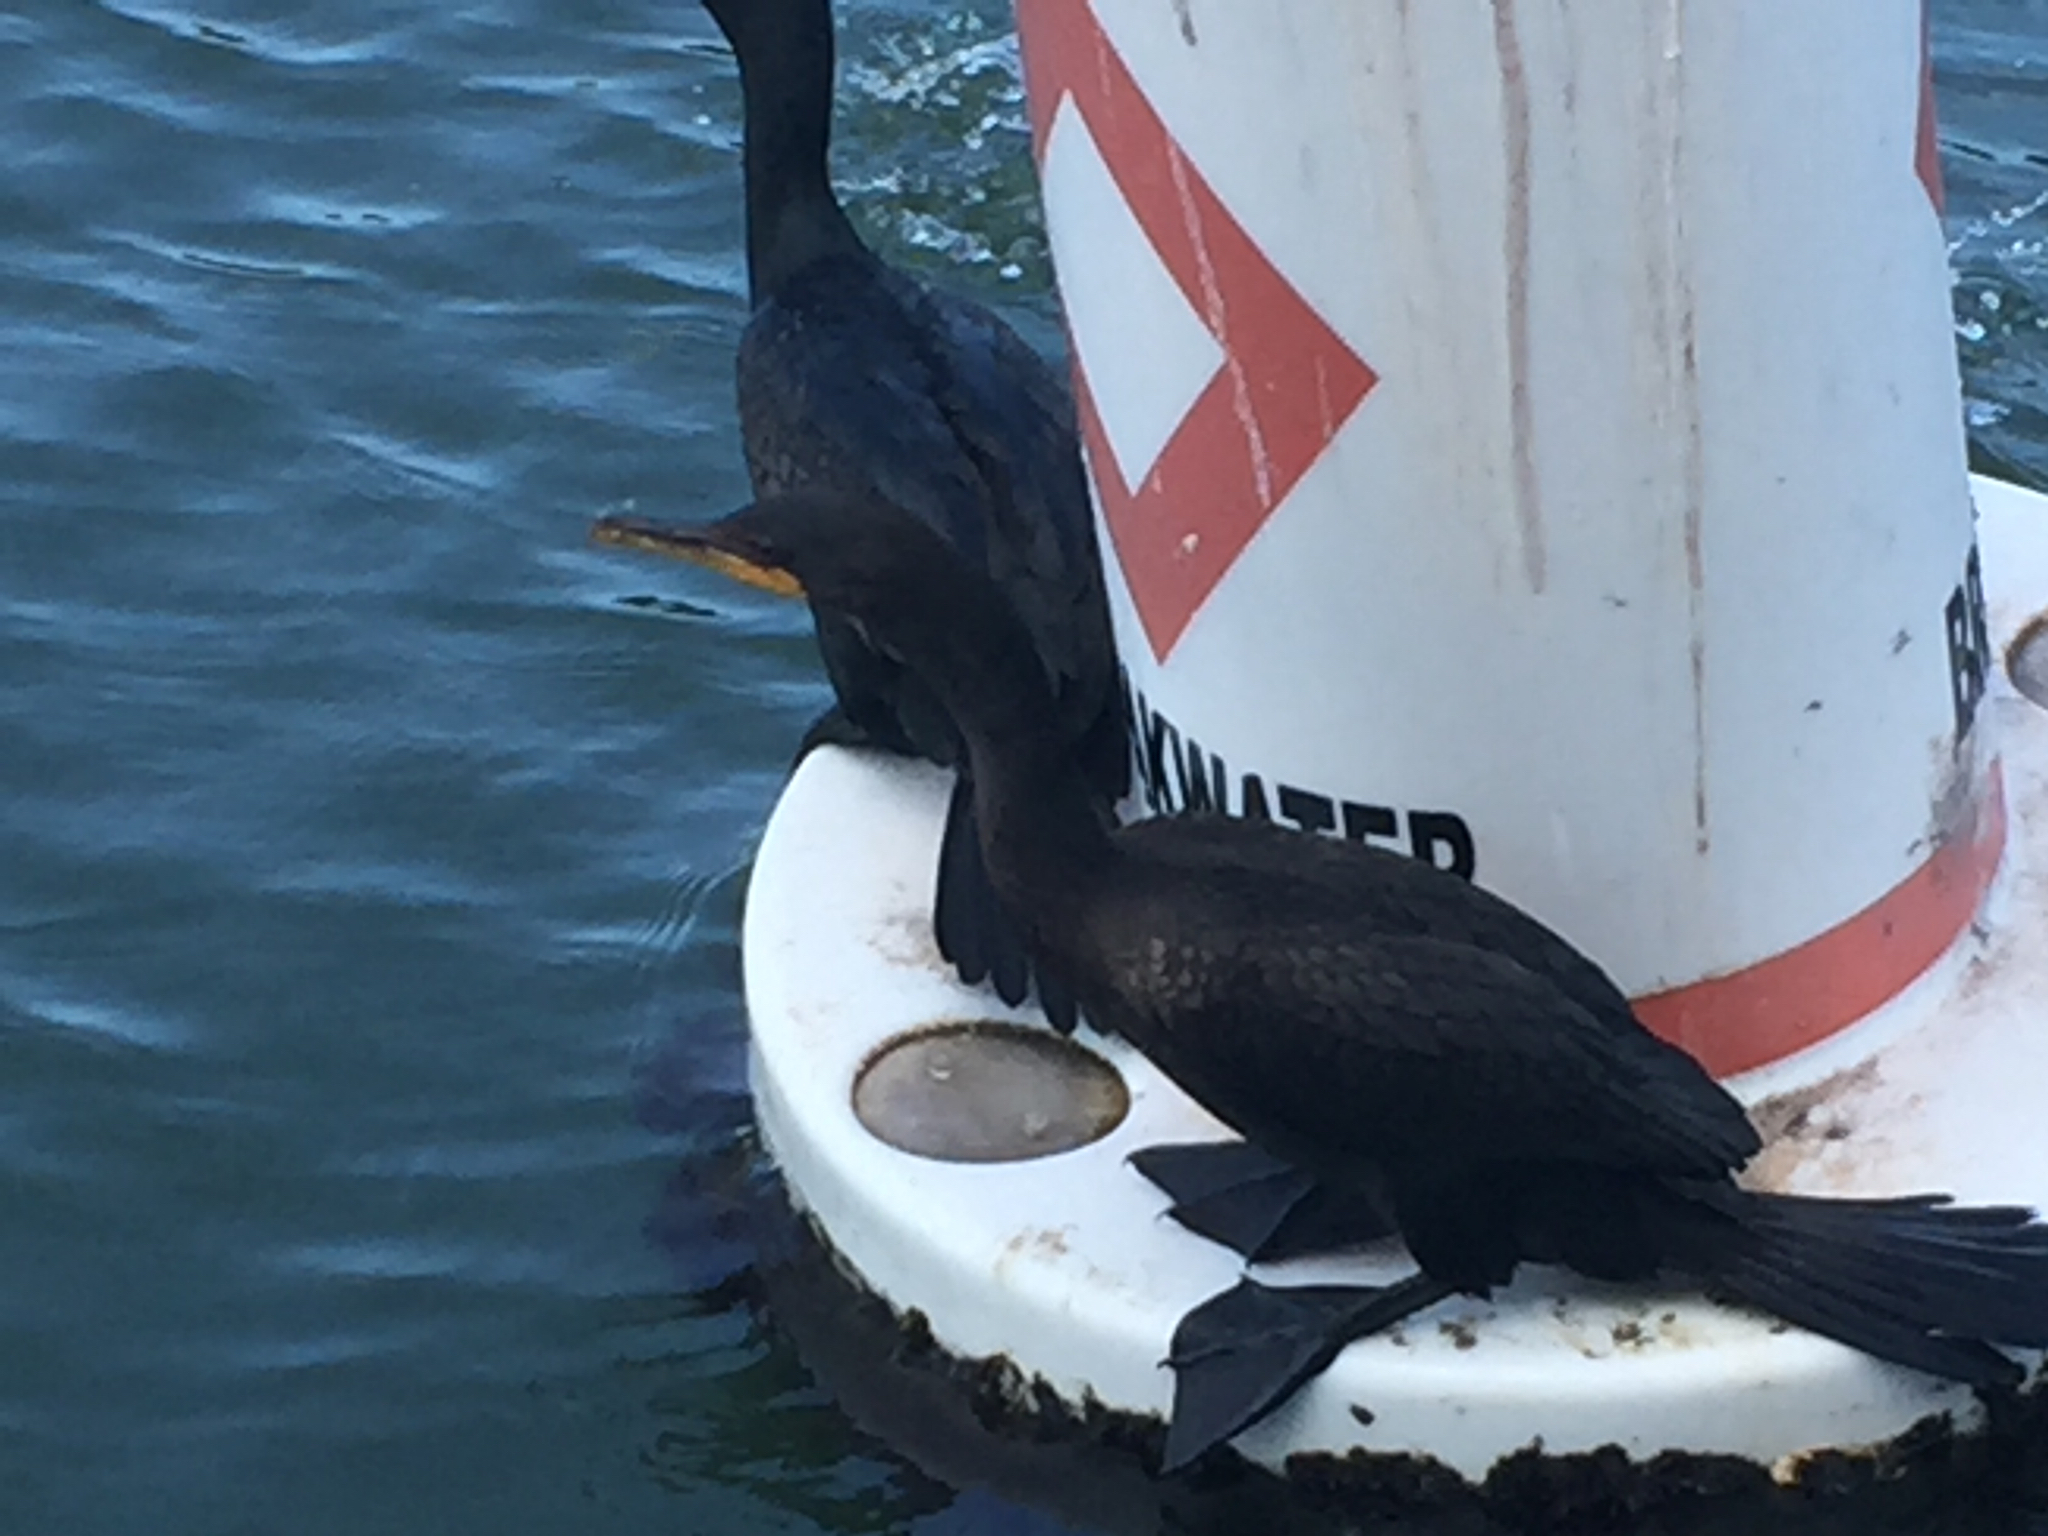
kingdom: Animalia
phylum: Chordata
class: Aves
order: Suliformes
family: Phalacrocoracidae
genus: Phalacrocorax
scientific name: Phalacrocorax auritus
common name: Double-crested cormorant
